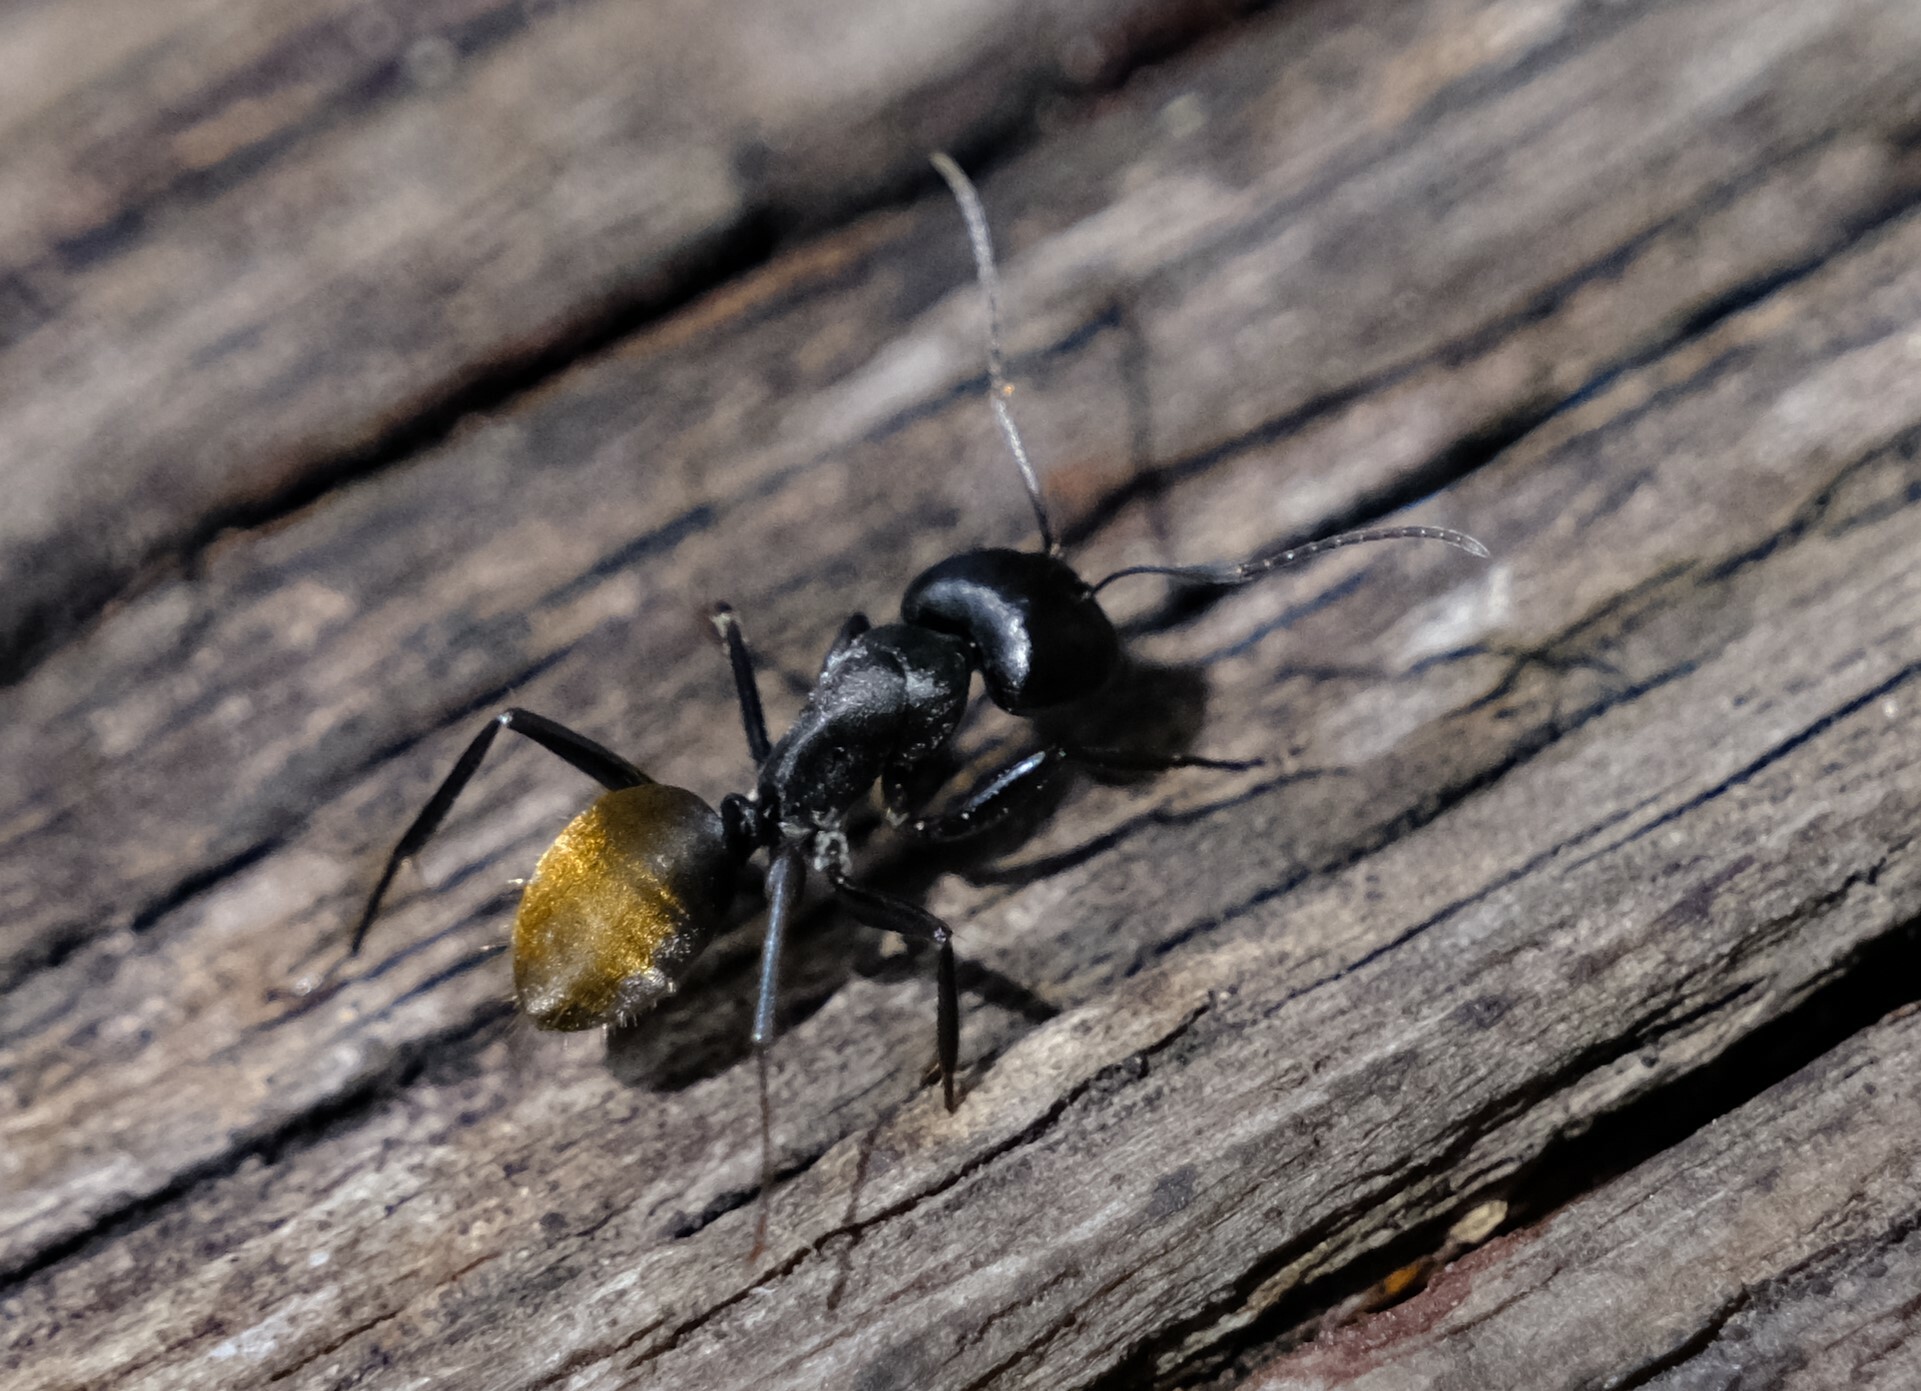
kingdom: Animalia
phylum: Arthropoda
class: Insecta
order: Hymenoptera
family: Formicidae
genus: Camponotus
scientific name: Camponotus aeneopilosus
